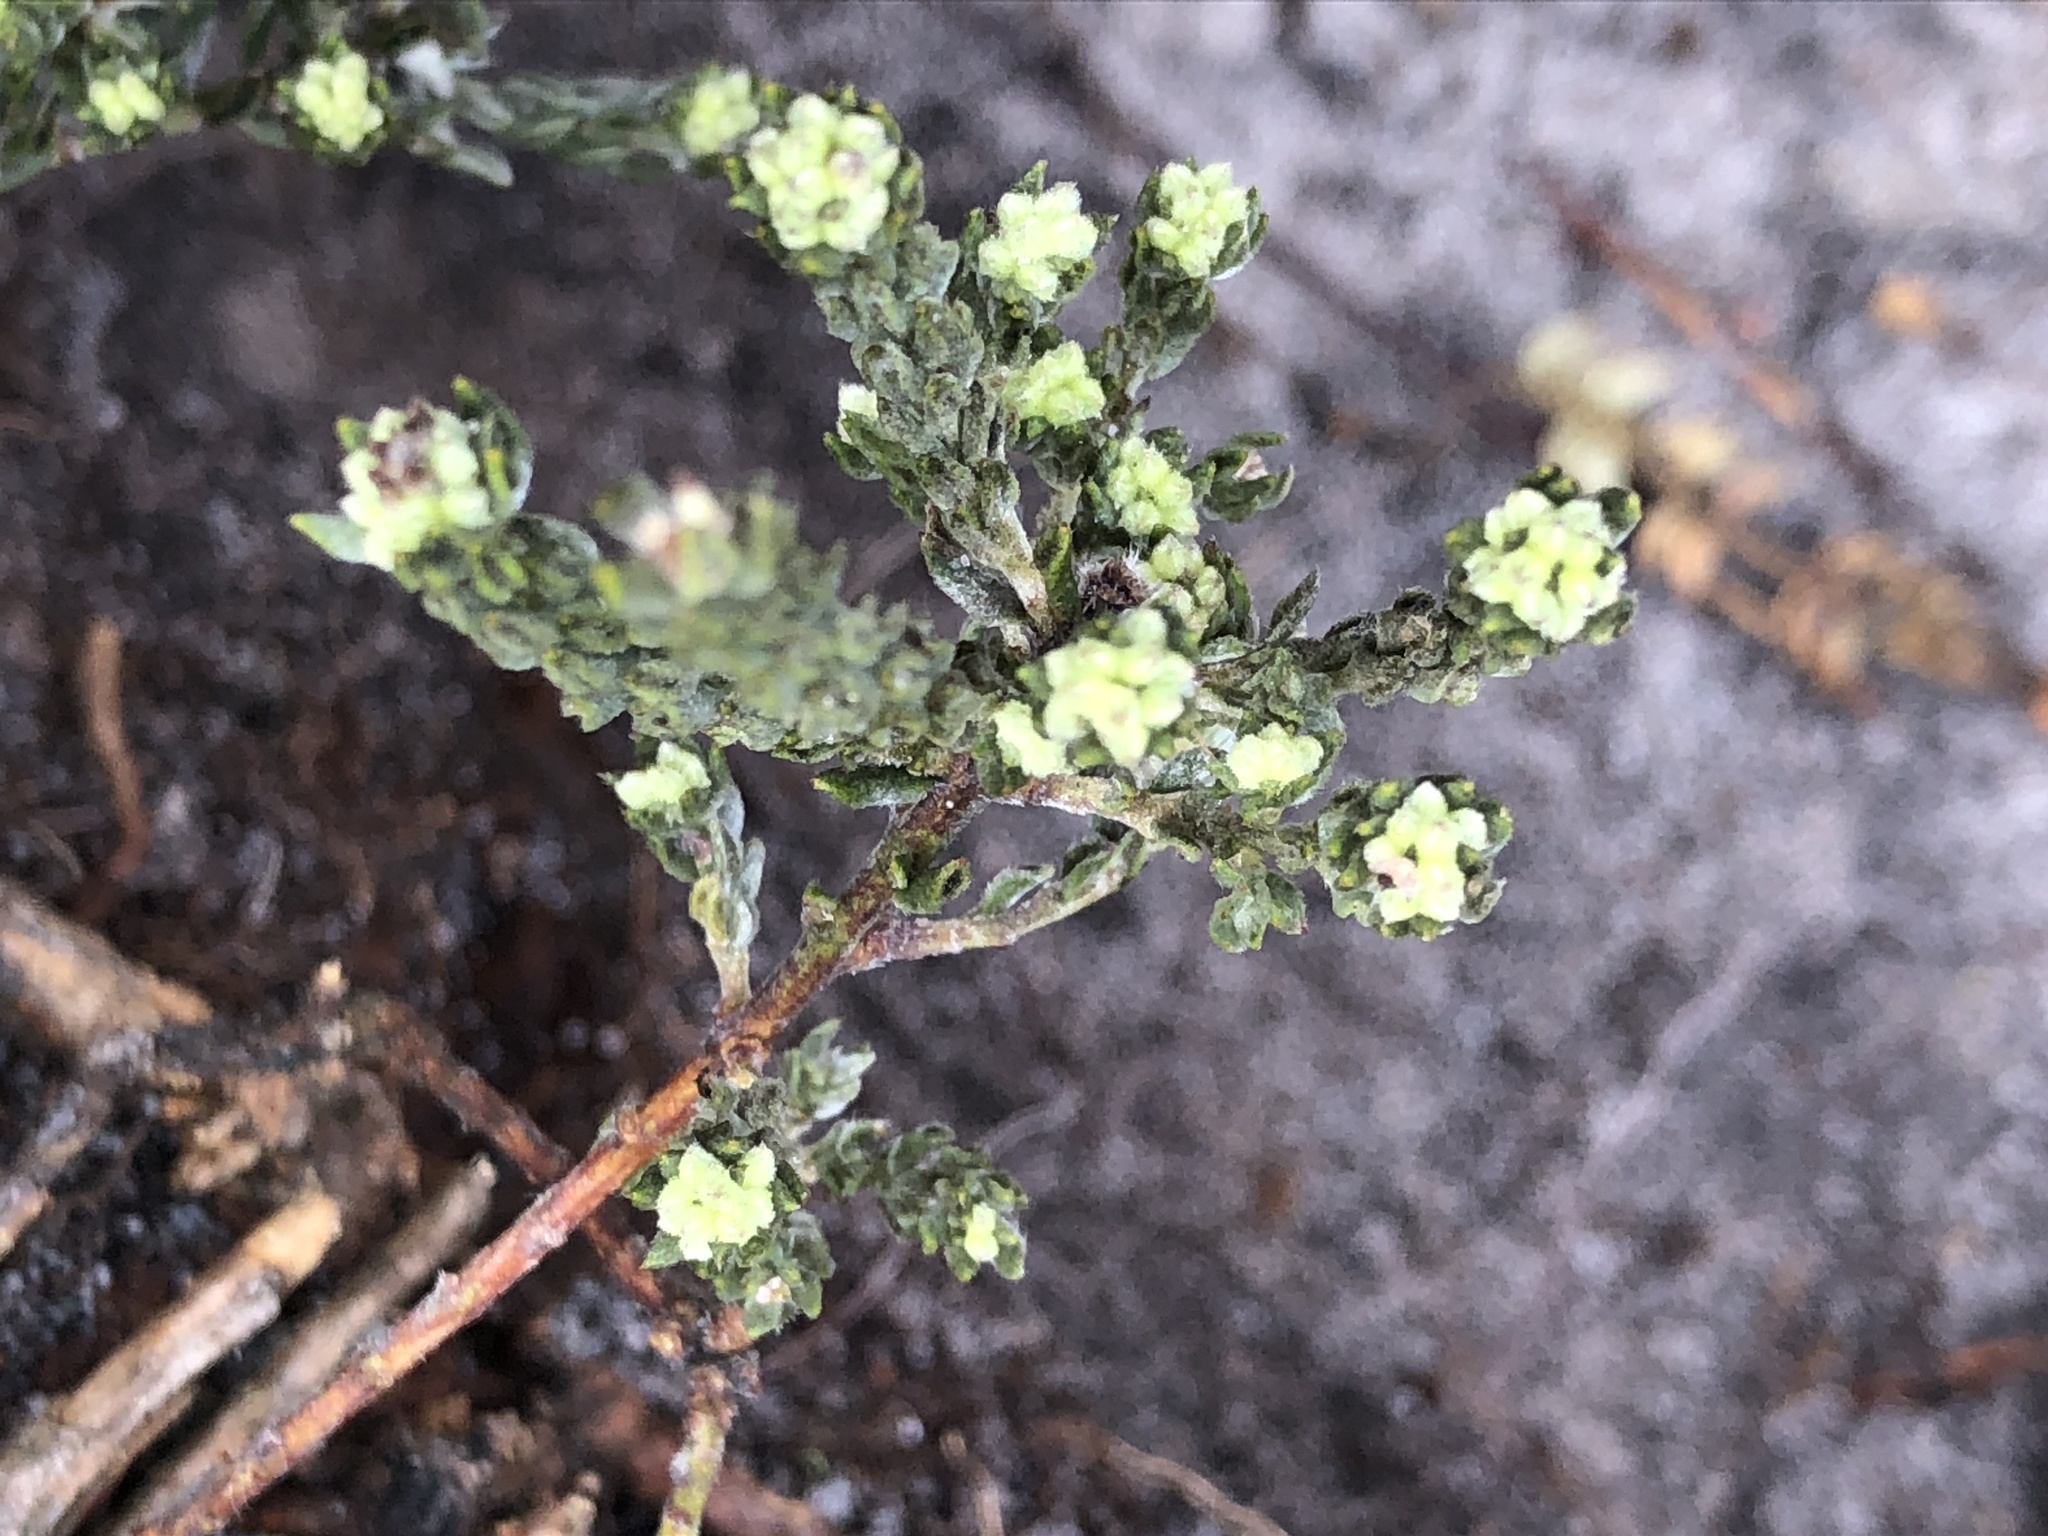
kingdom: Plantae
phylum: Tracheophyta
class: Magnoliopsida
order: Fabales
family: Fabaceae
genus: Amphithalea
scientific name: Amphithalea ericifolia
